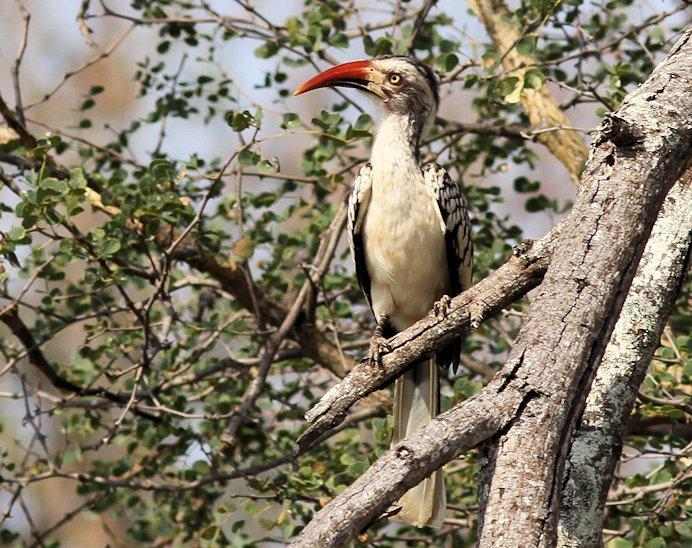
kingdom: Animalia
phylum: Chordata
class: Aves
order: Bucerotiformes
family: Bucerotidae
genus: Tockus
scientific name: Tockus rufirostris
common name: Southern red-billed hornbill
